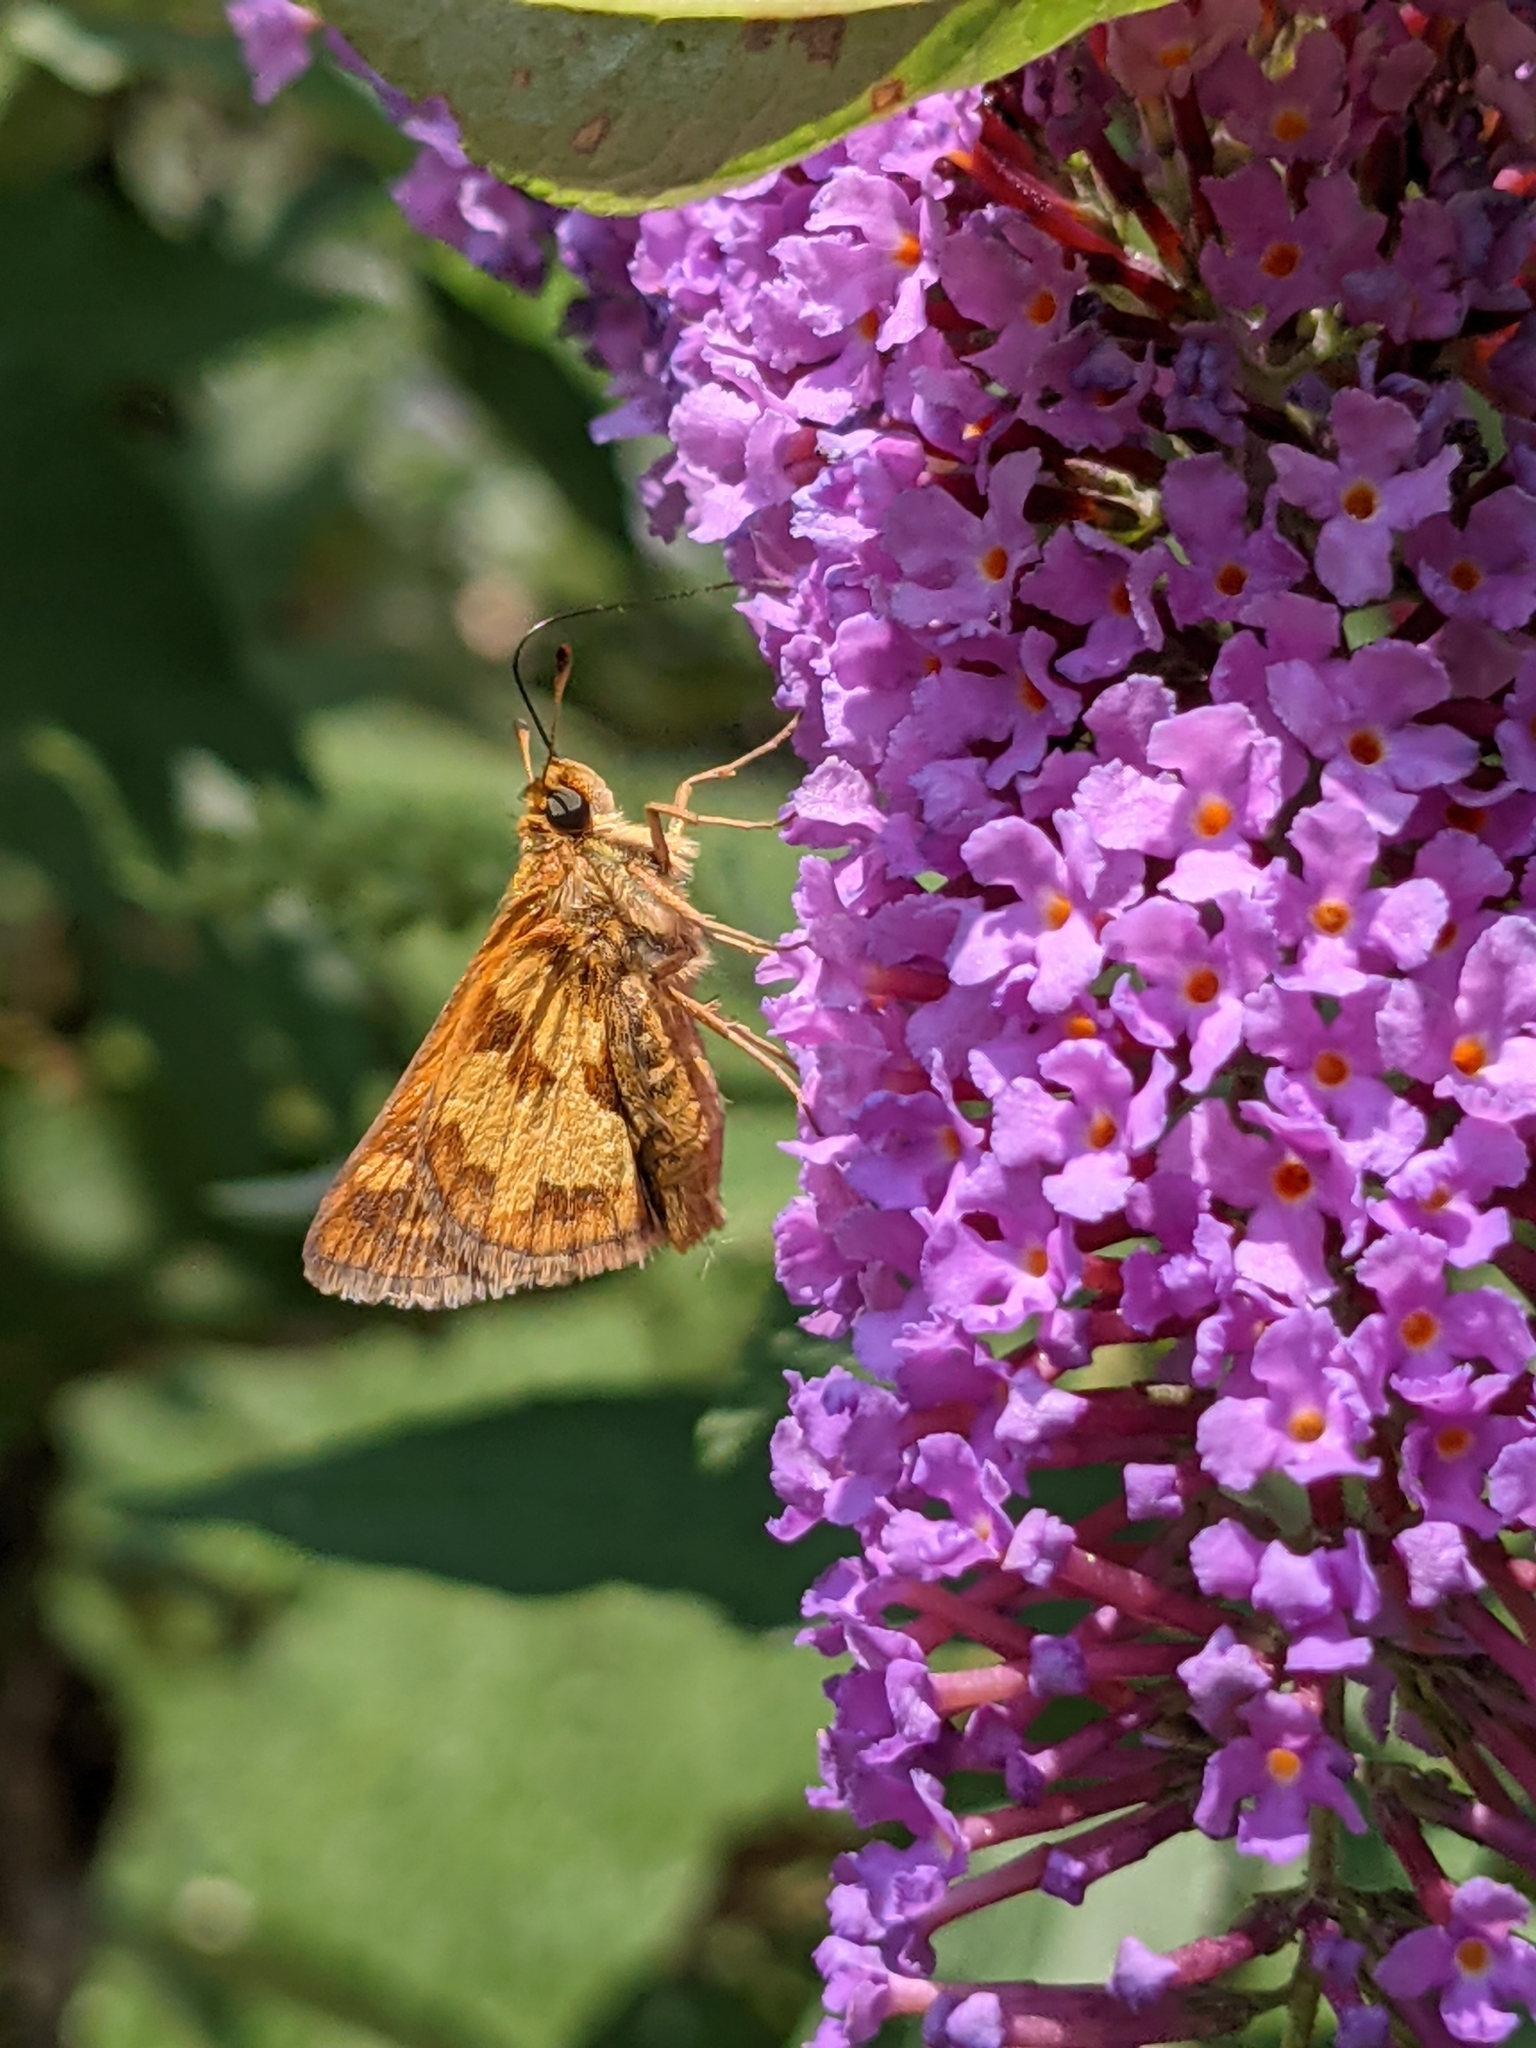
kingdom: Animalia
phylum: Arthropoda
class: Insecta
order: Lepidoptera
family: Hesperiidae
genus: Polites
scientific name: Polites coras
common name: Peck's skipper
